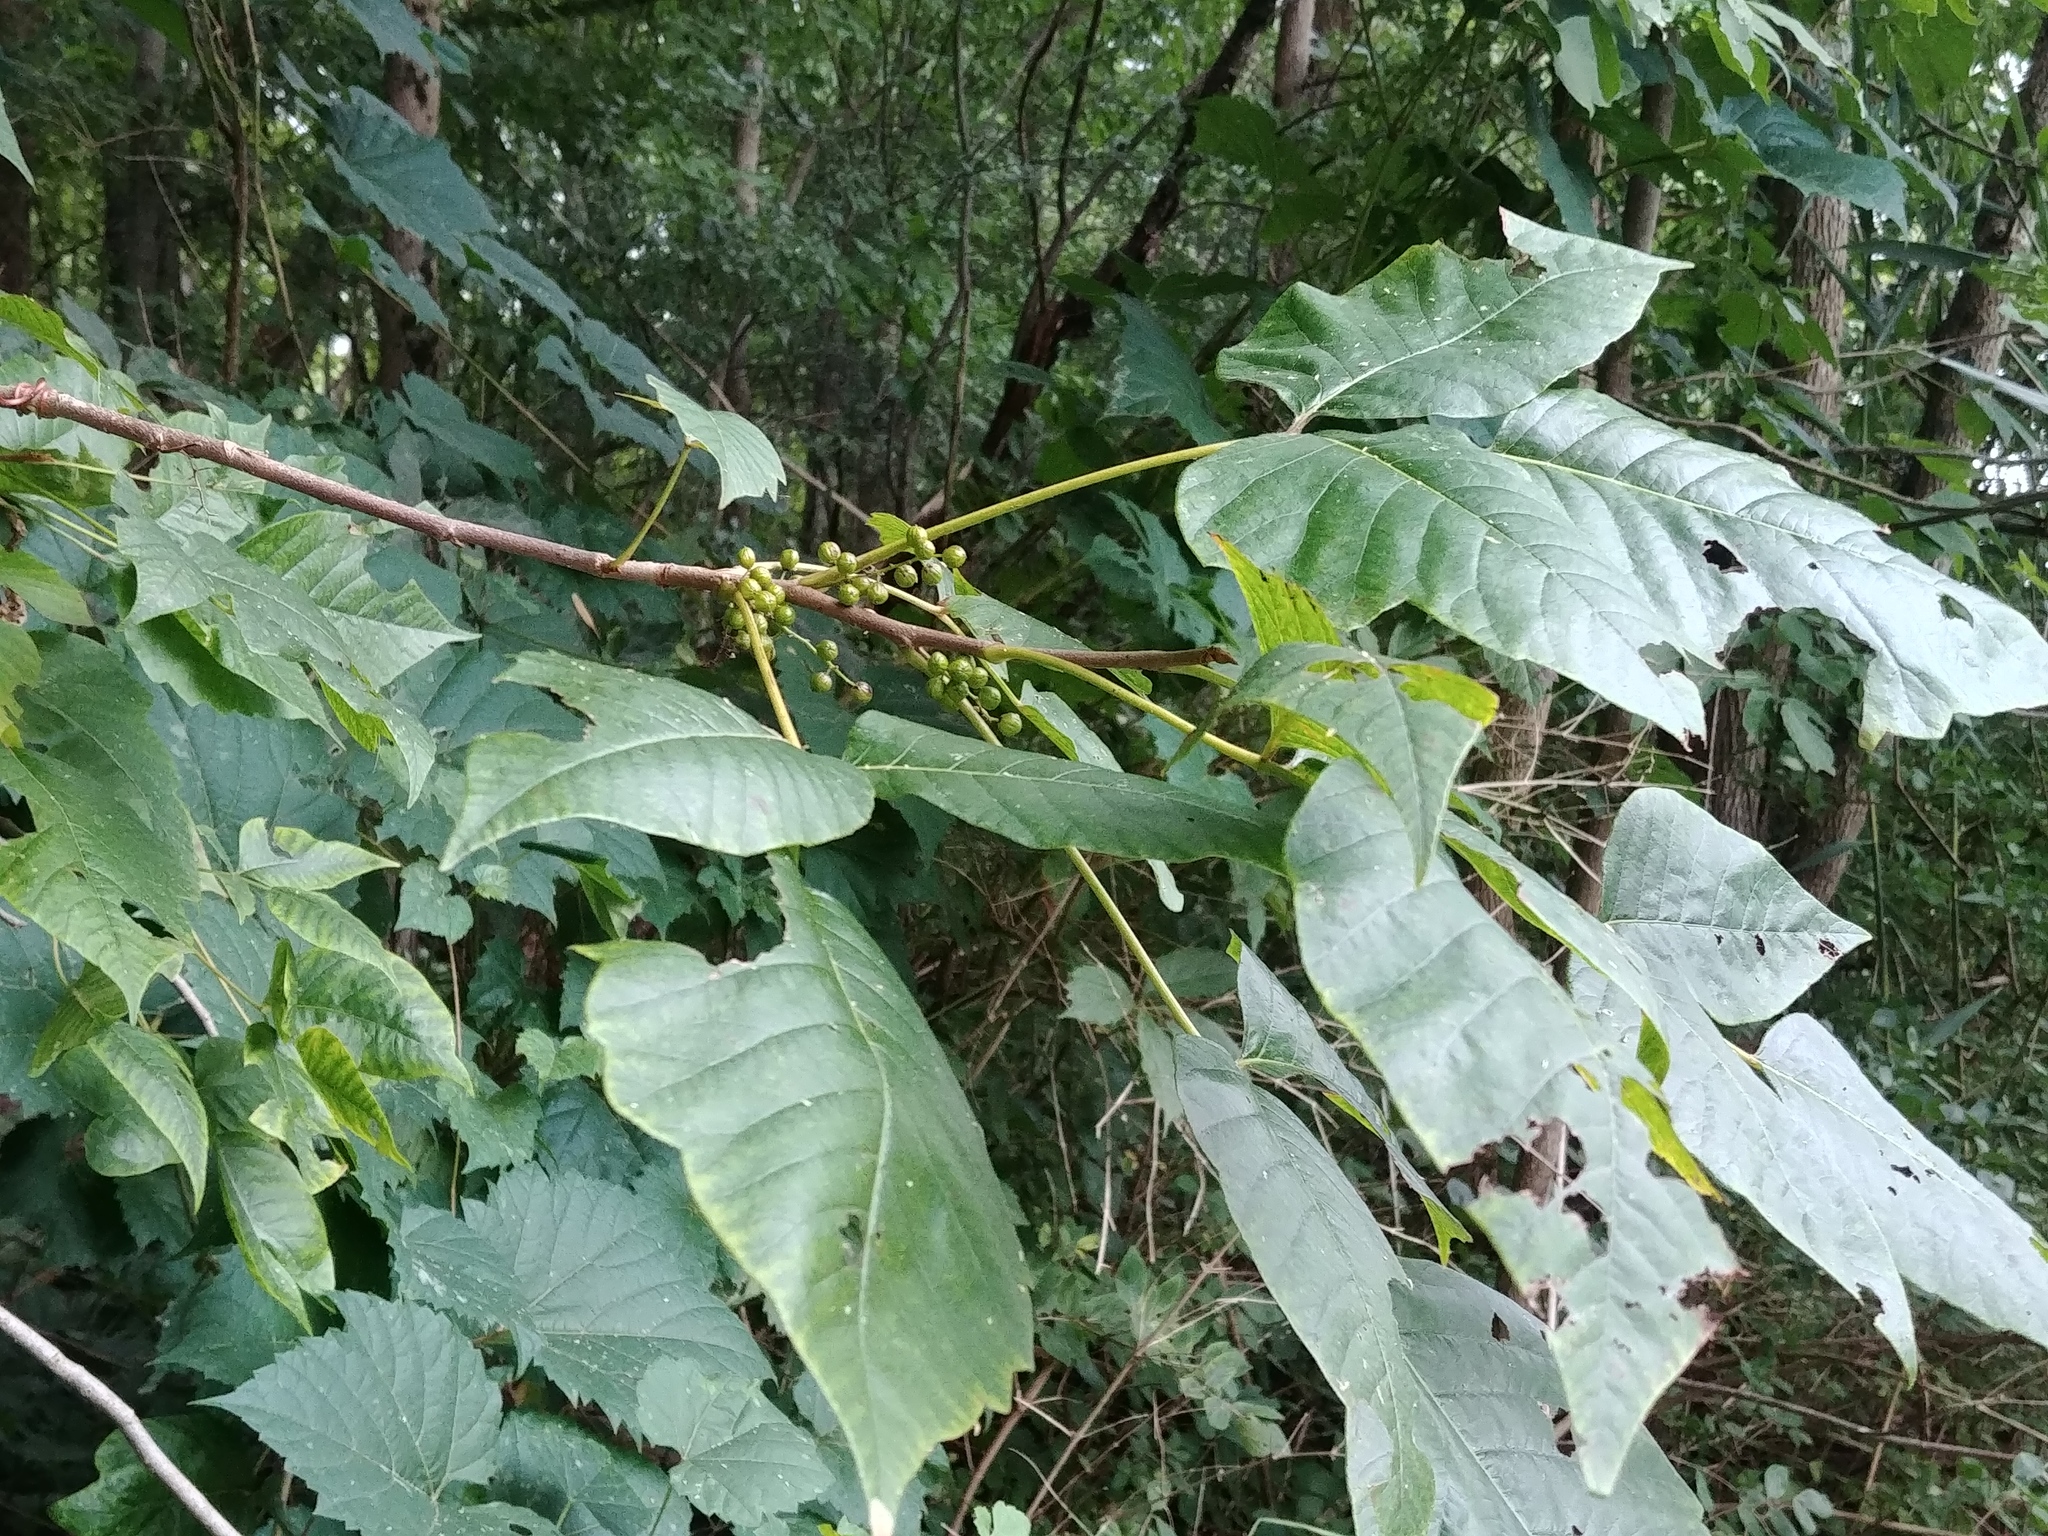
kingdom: Plantae
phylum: Tracheophyta
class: Magnoliopsida
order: Sapindales
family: Anacardiaceae
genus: Toxicodendron
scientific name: Toxicodendron radicans
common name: Poison ivy
